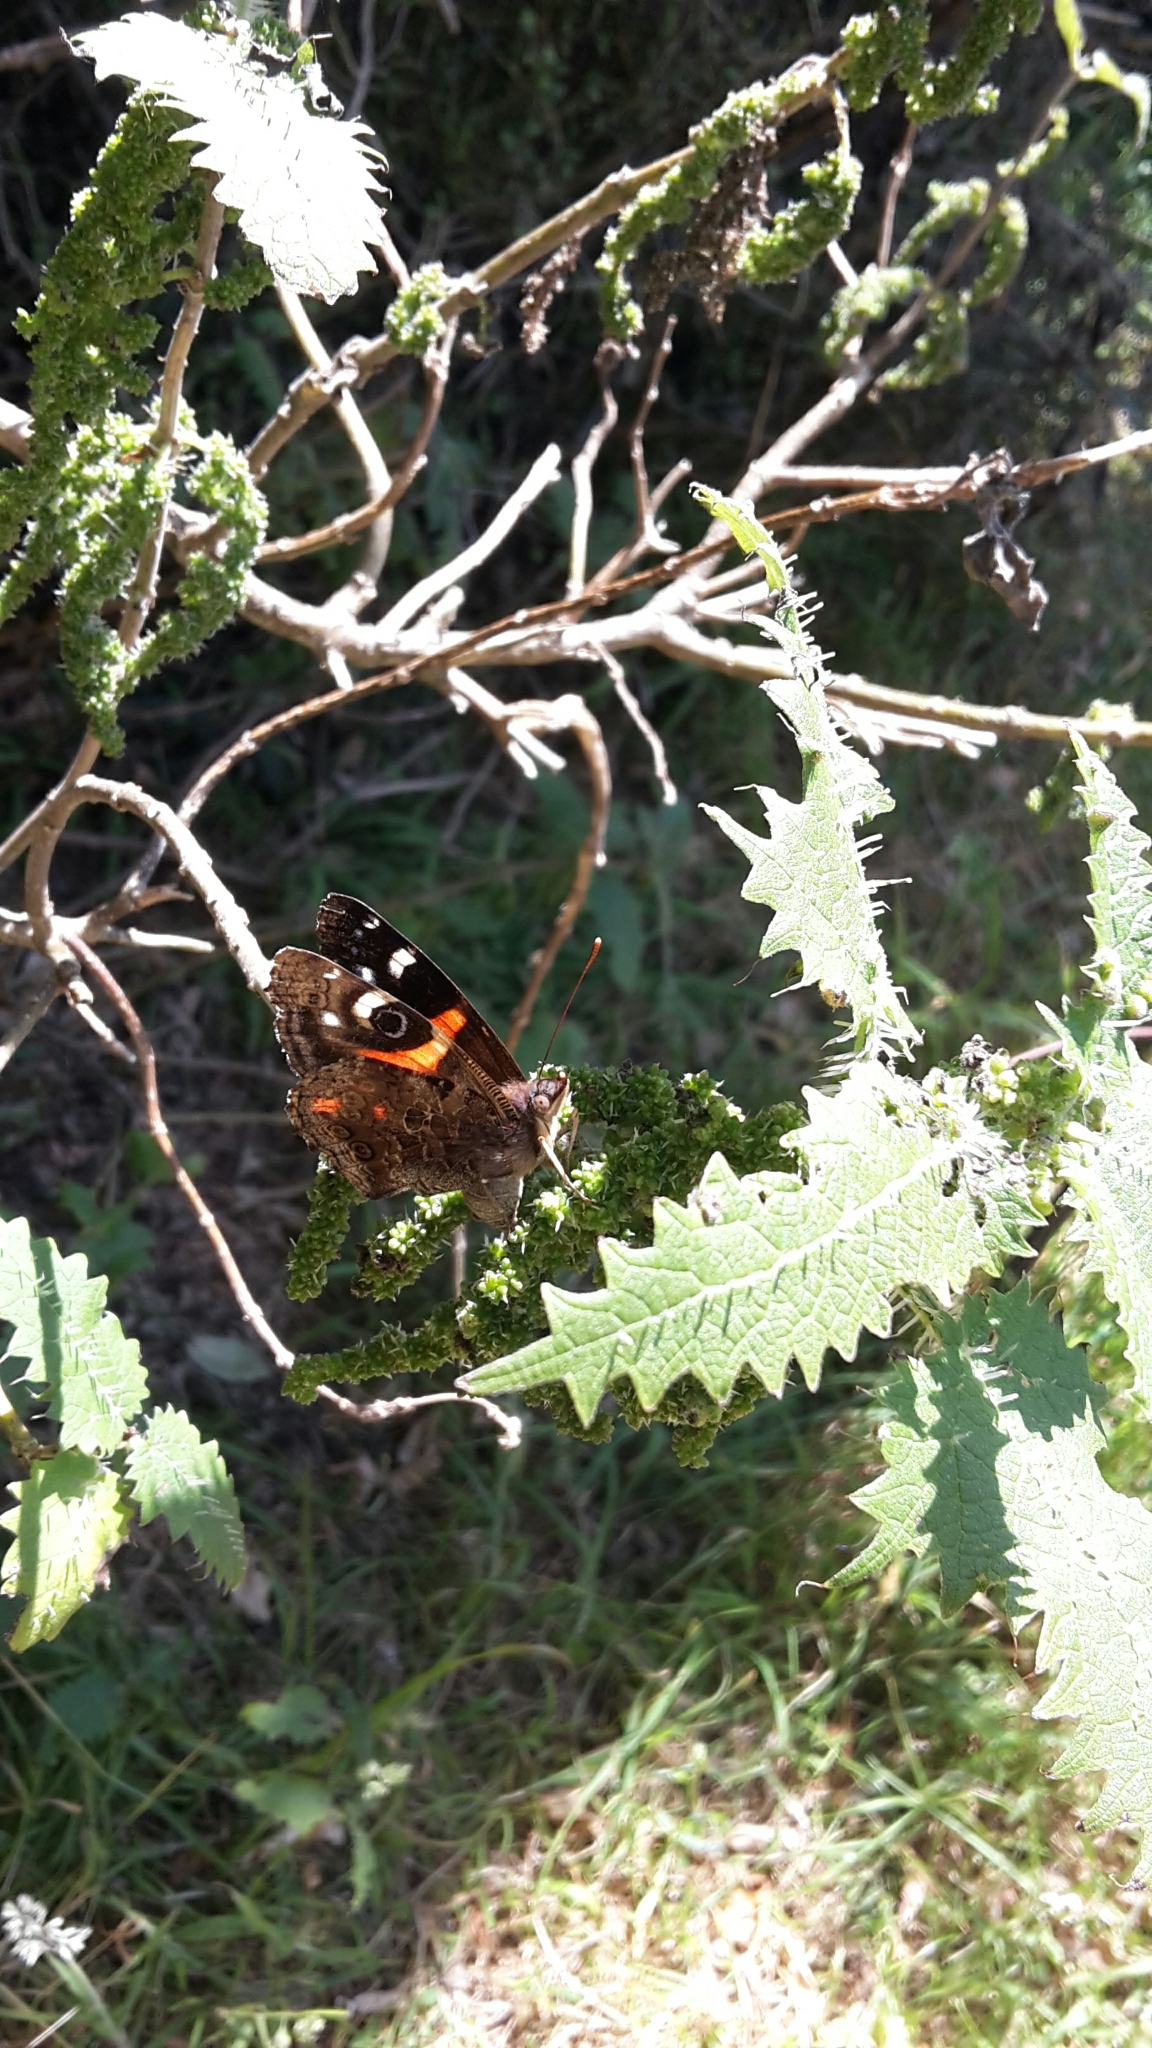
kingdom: Animalia
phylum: Arthropoda
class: Insecta
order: Lepidoptera
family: Nymphalidae
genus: Vanessa
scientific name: Vanessa gonerilla
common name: New zealand red admiral
